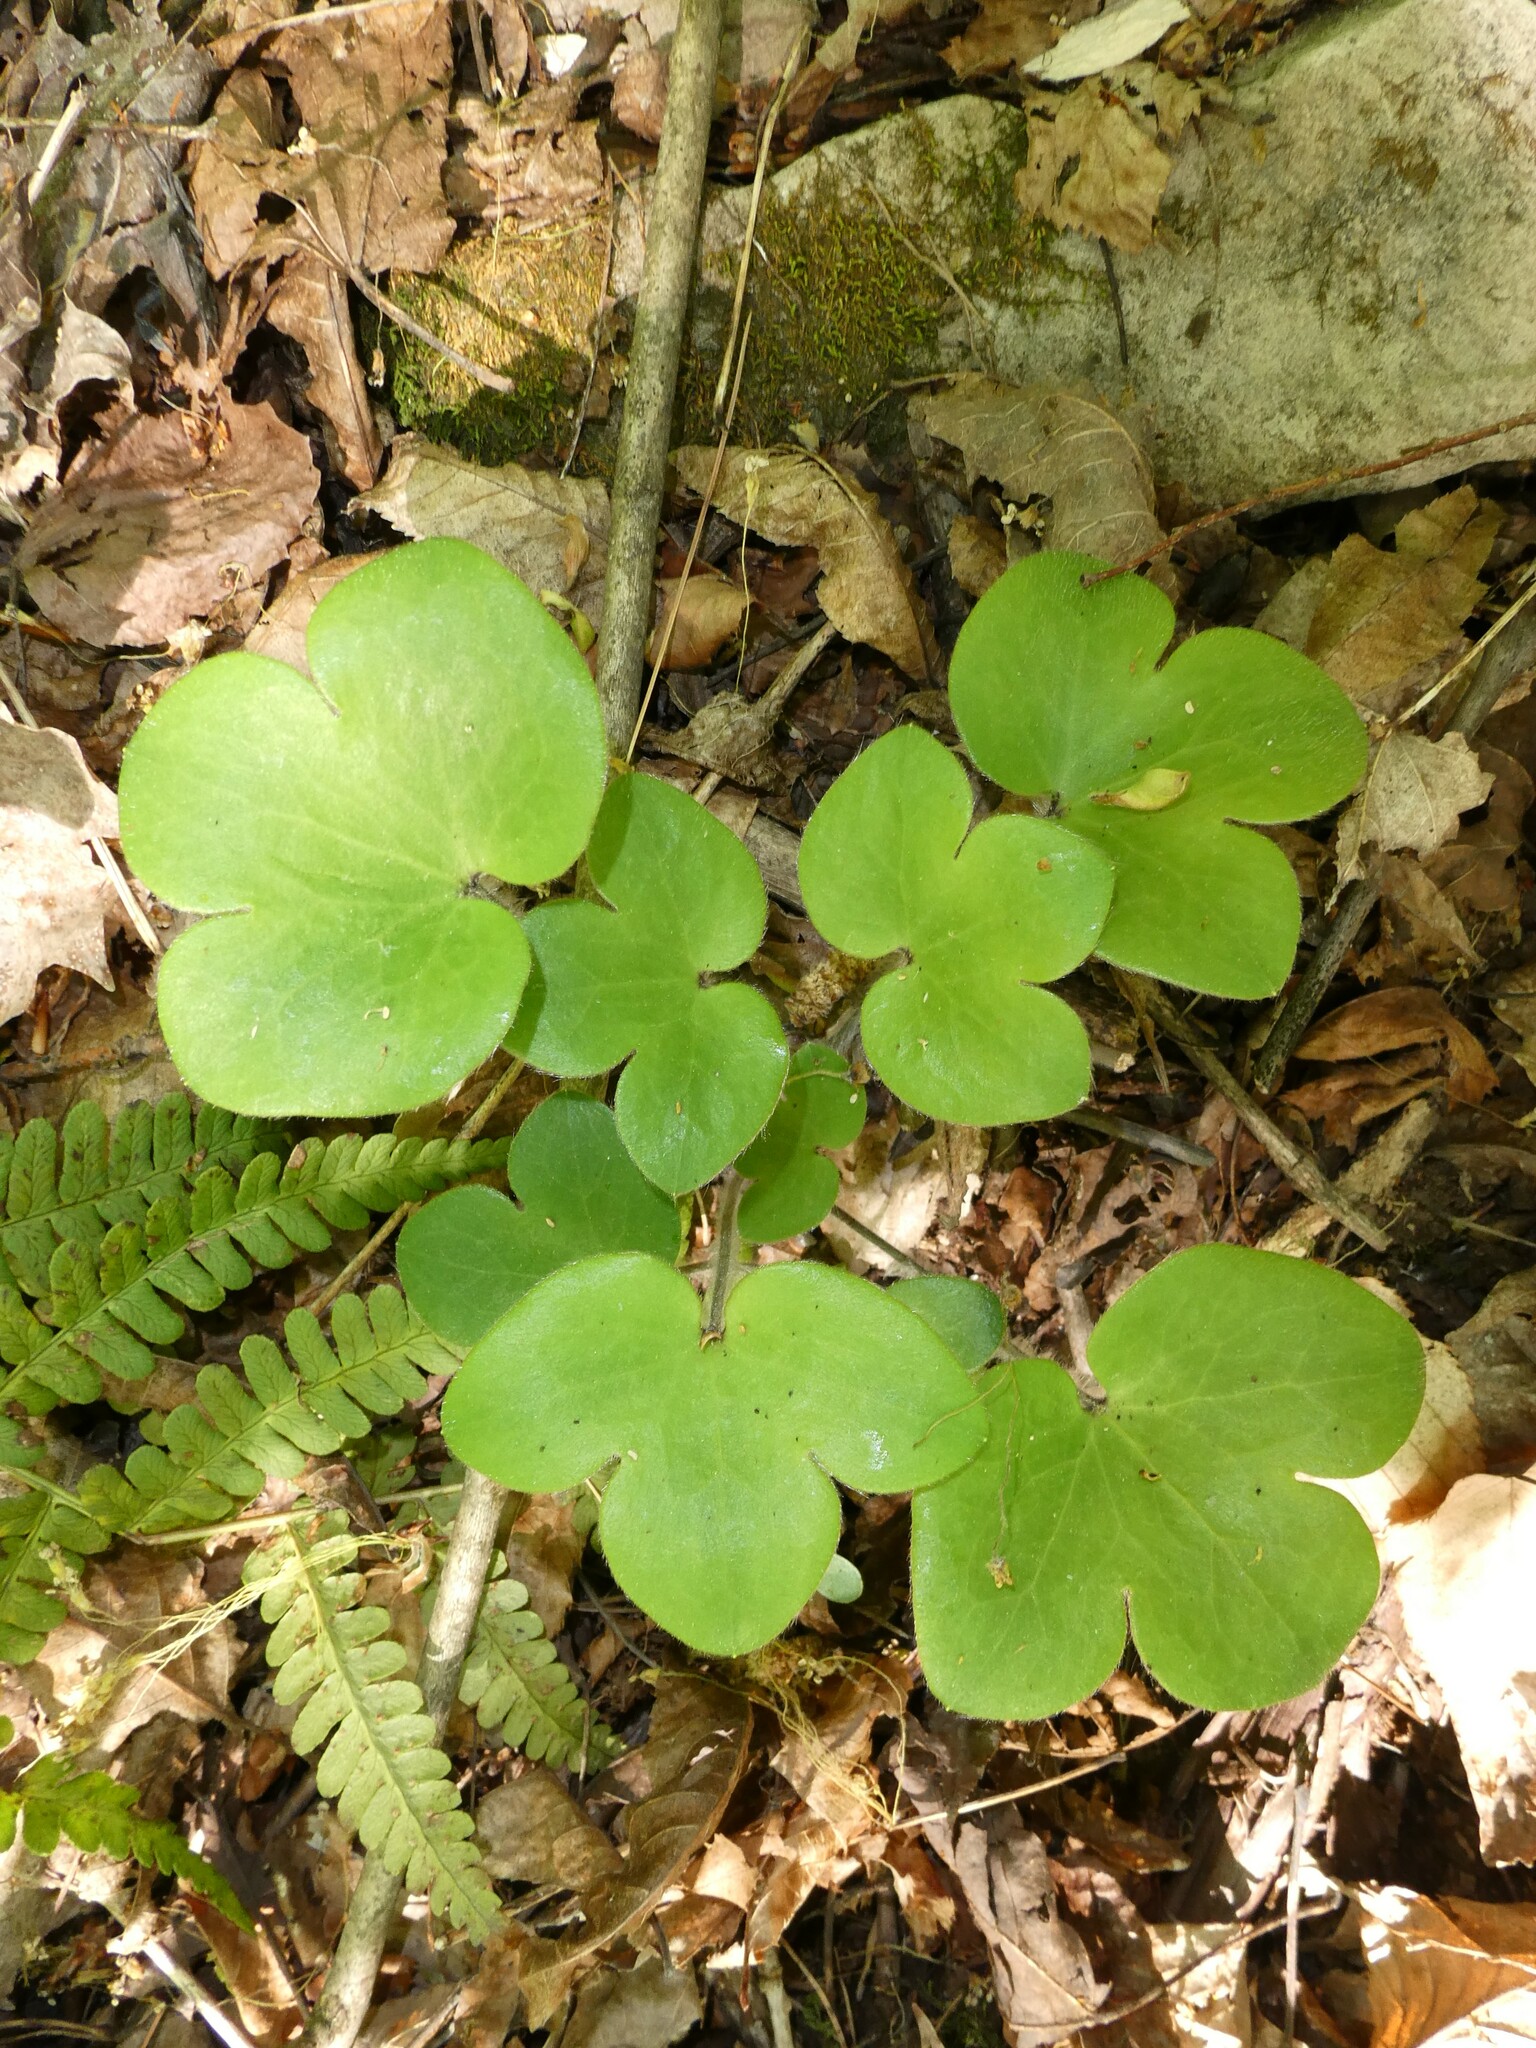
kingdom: Plantae
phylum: Tracheophyta
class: Magnoliopsida
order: Ranunculales
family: Ranunculaceae
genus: Hepatica
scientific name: Hepatica americana
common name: American hepatica
